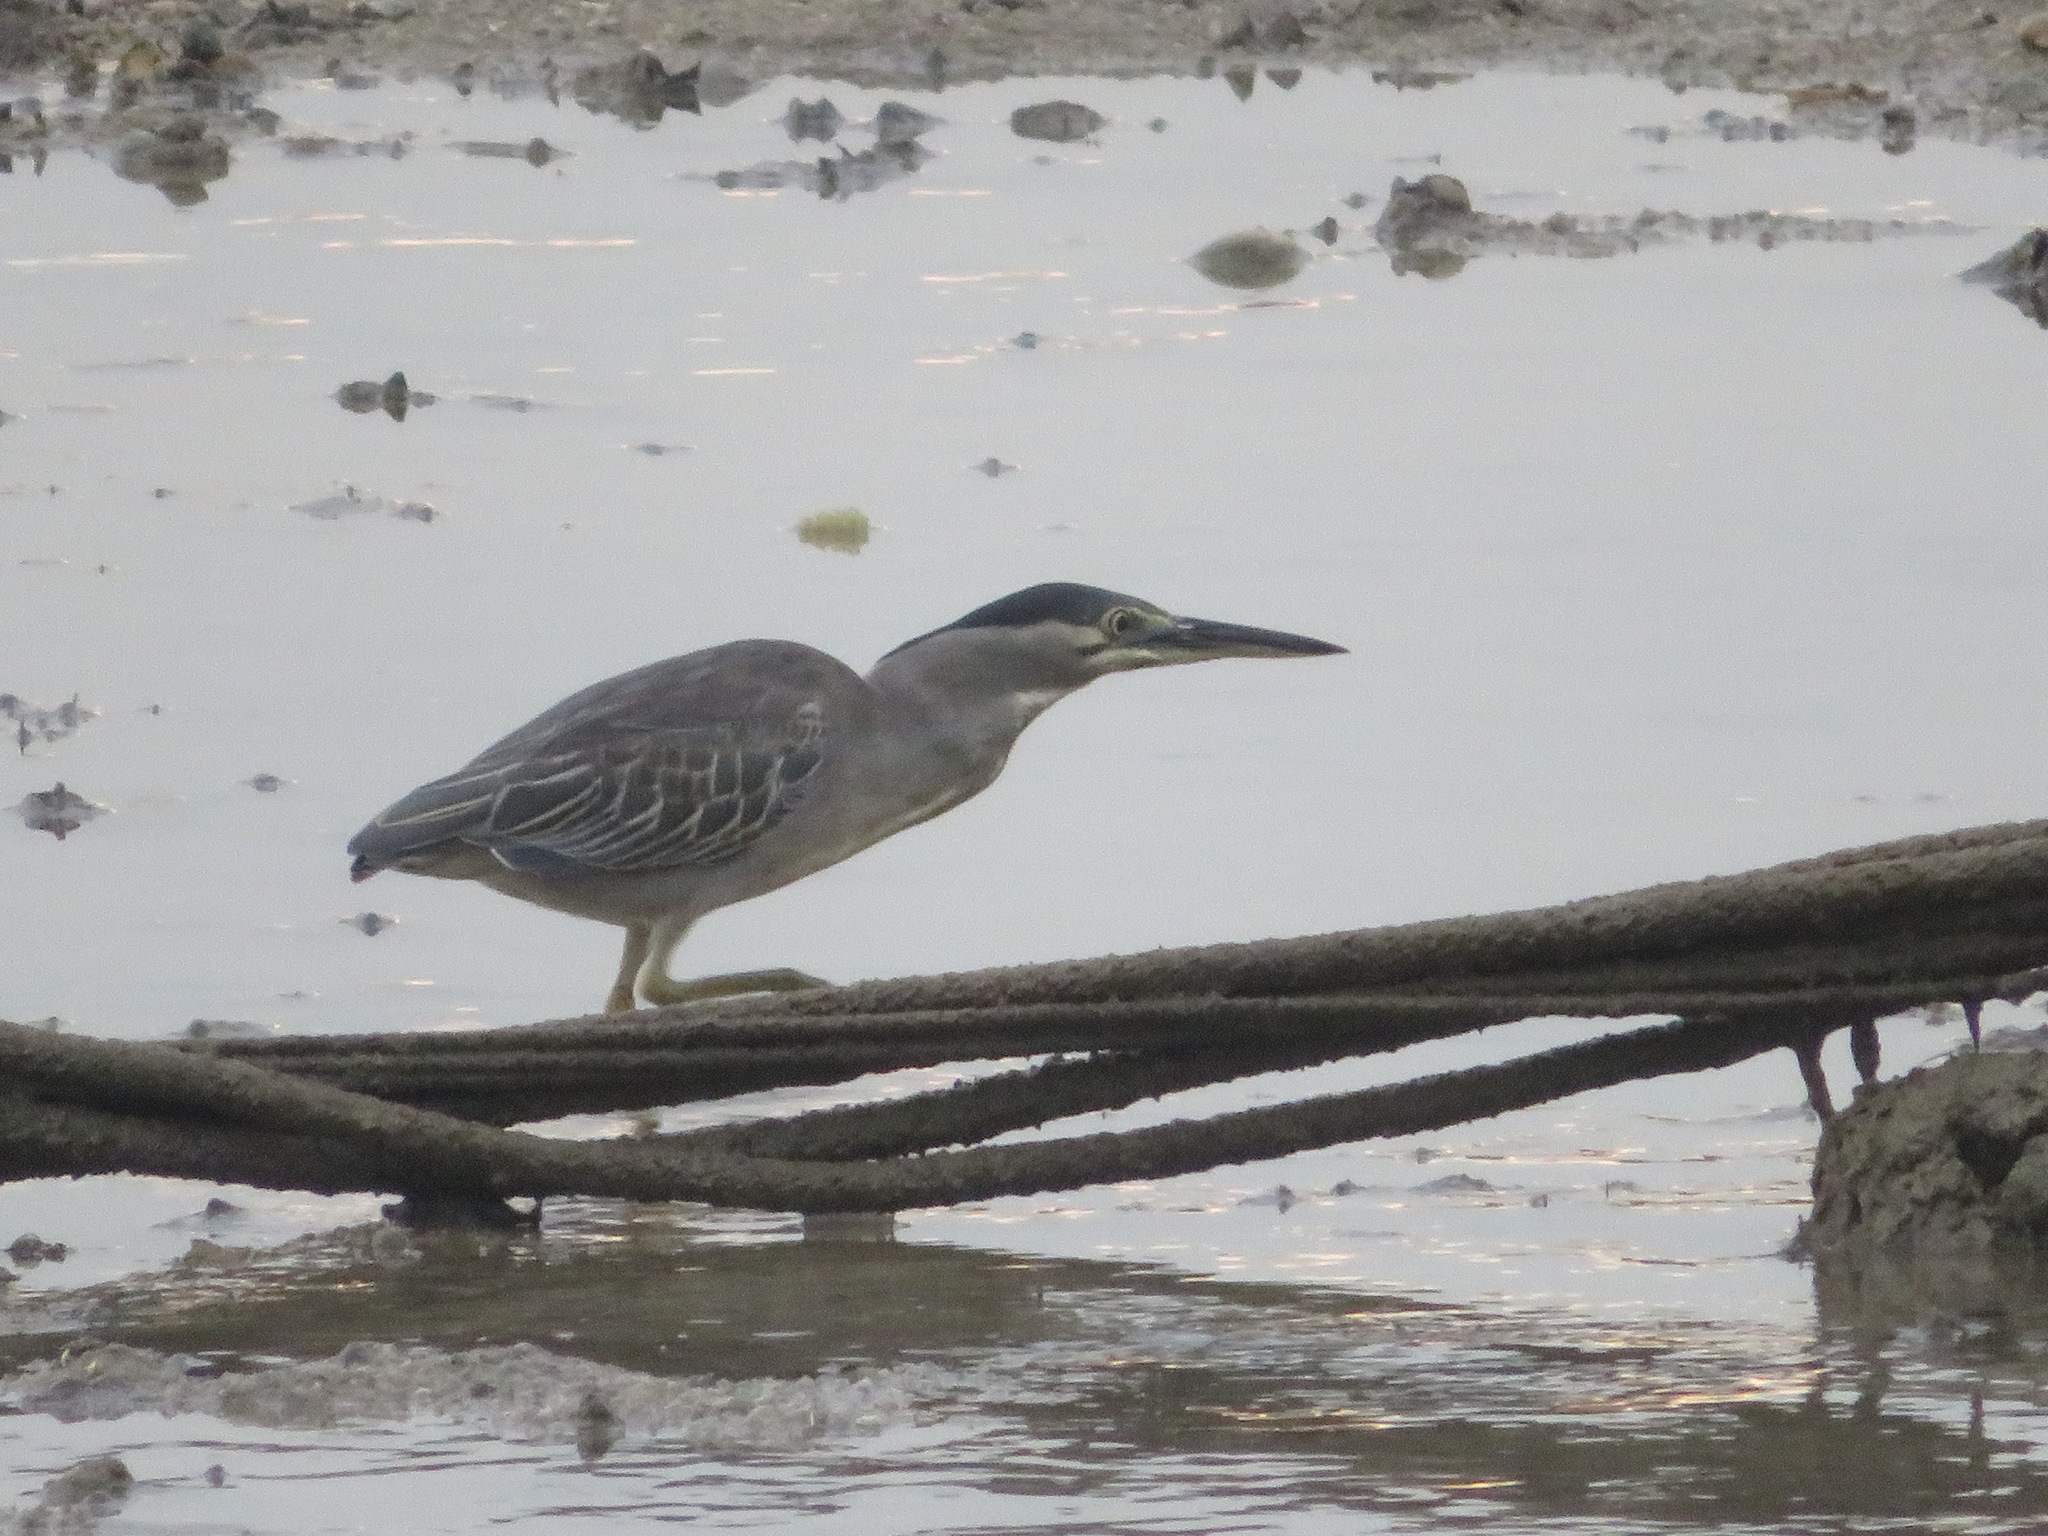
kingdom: Animalia
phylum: Chordata
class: Aves
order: Pelecaniformes
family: Ardeidae
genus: Butorides
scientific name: Butorides striata
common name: Striated heron
